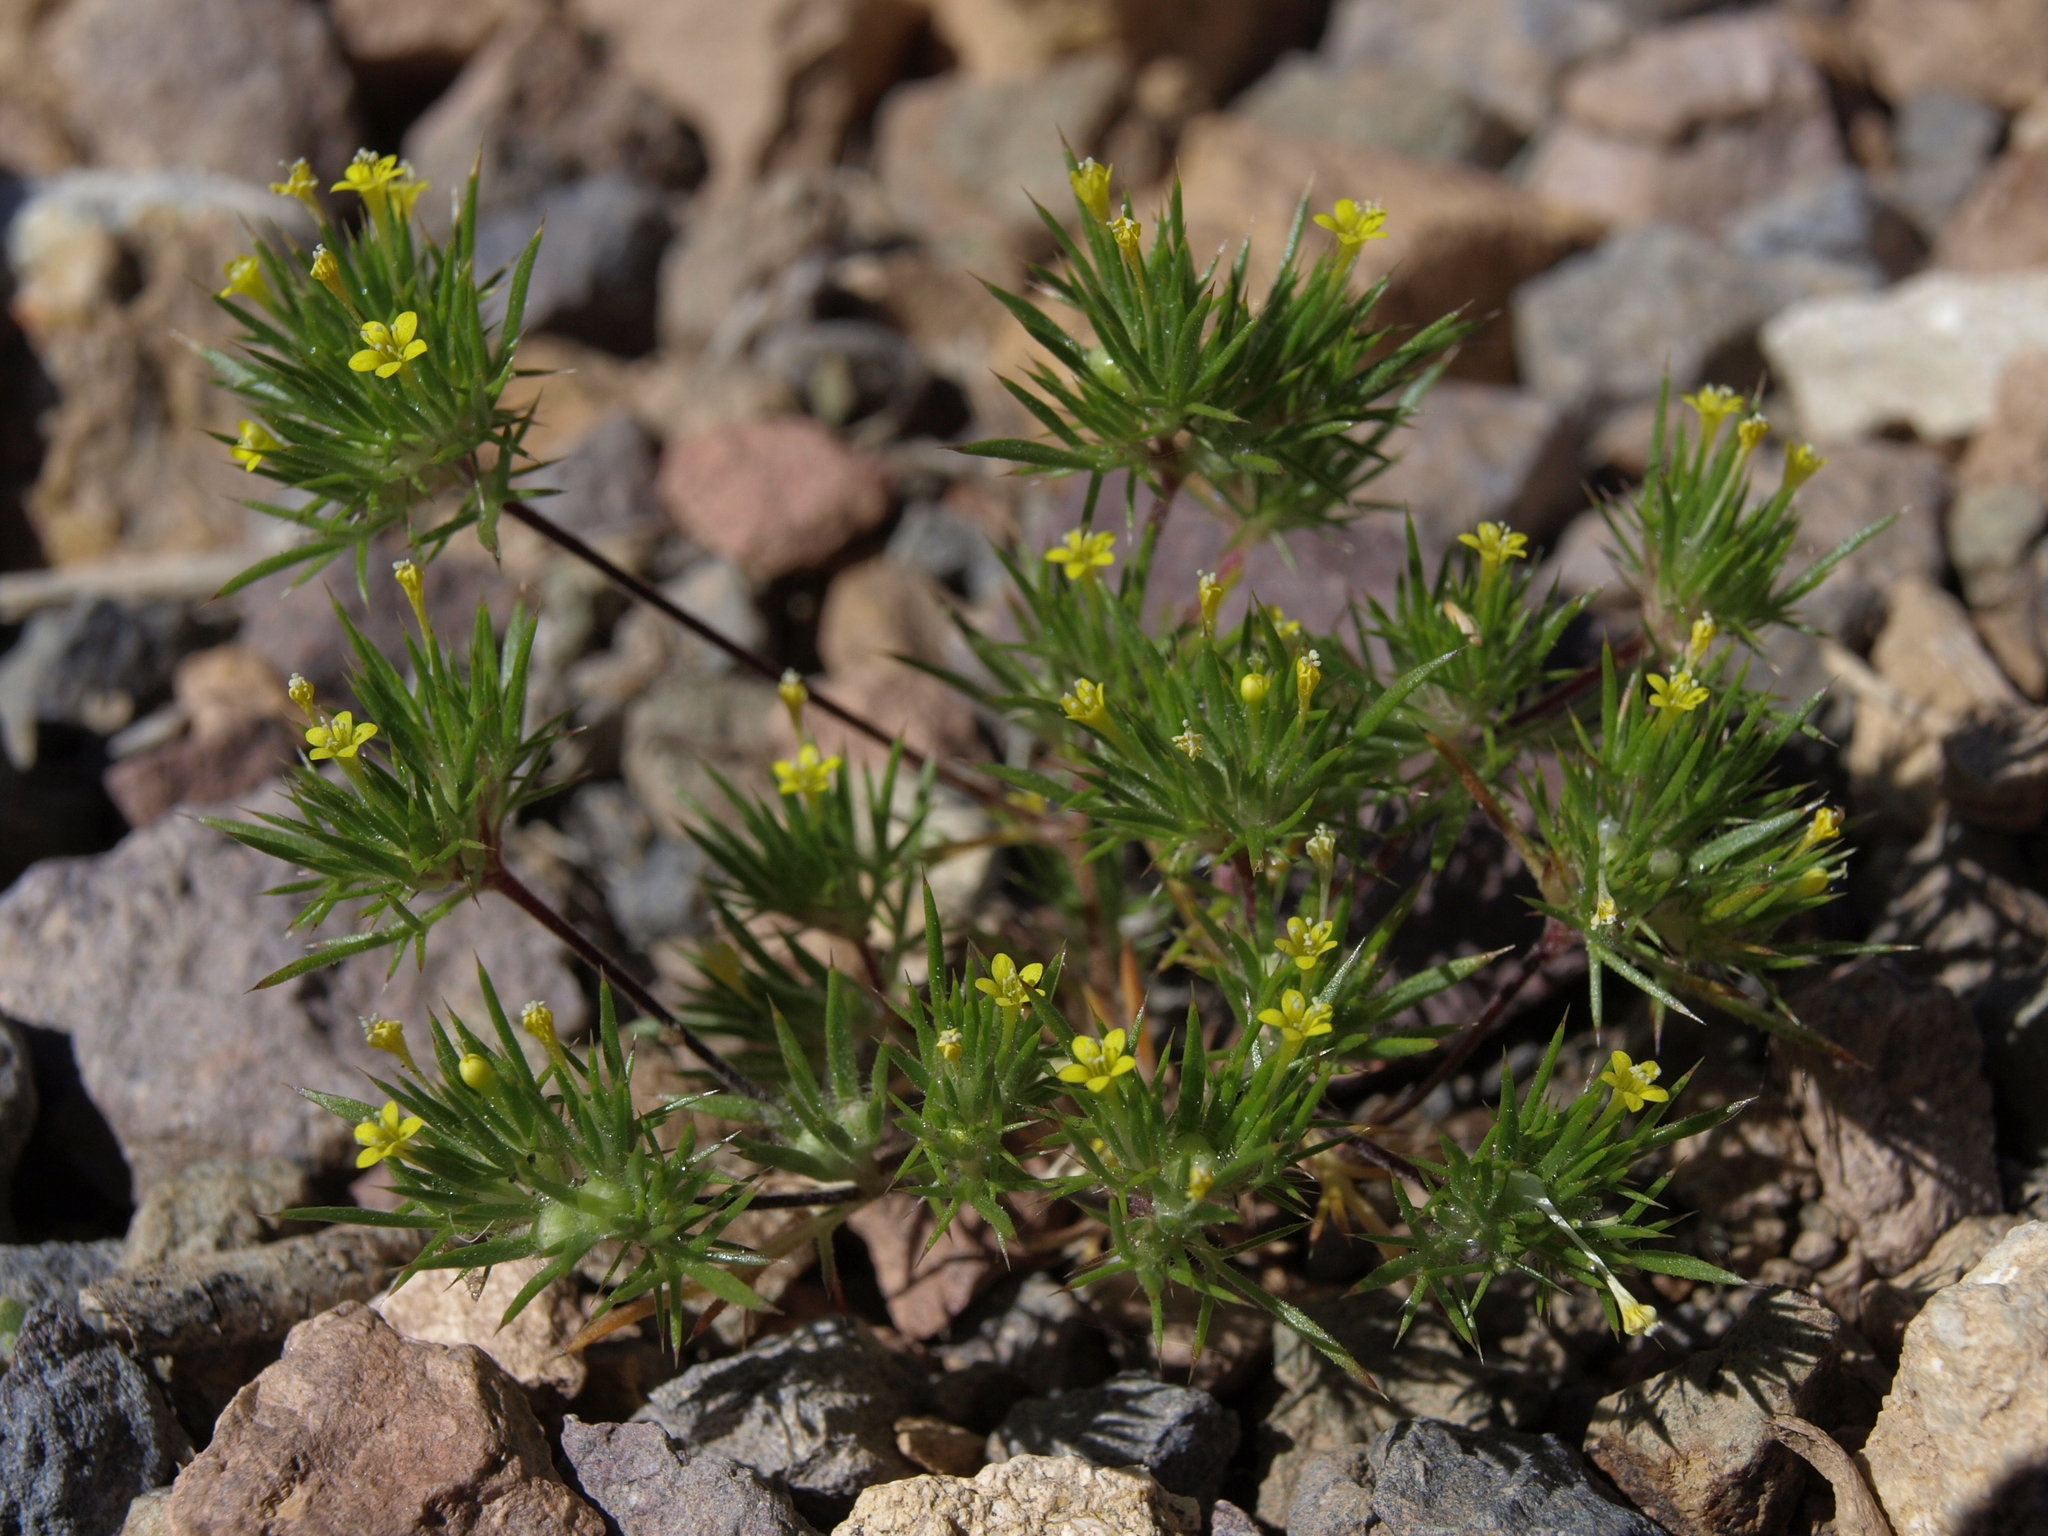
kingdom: Plantae
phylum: Tracheophyta
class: Magnoliopsida
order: Ericales
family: Polemoniaceae
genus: Navarretia
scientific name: Navarretia breweri
